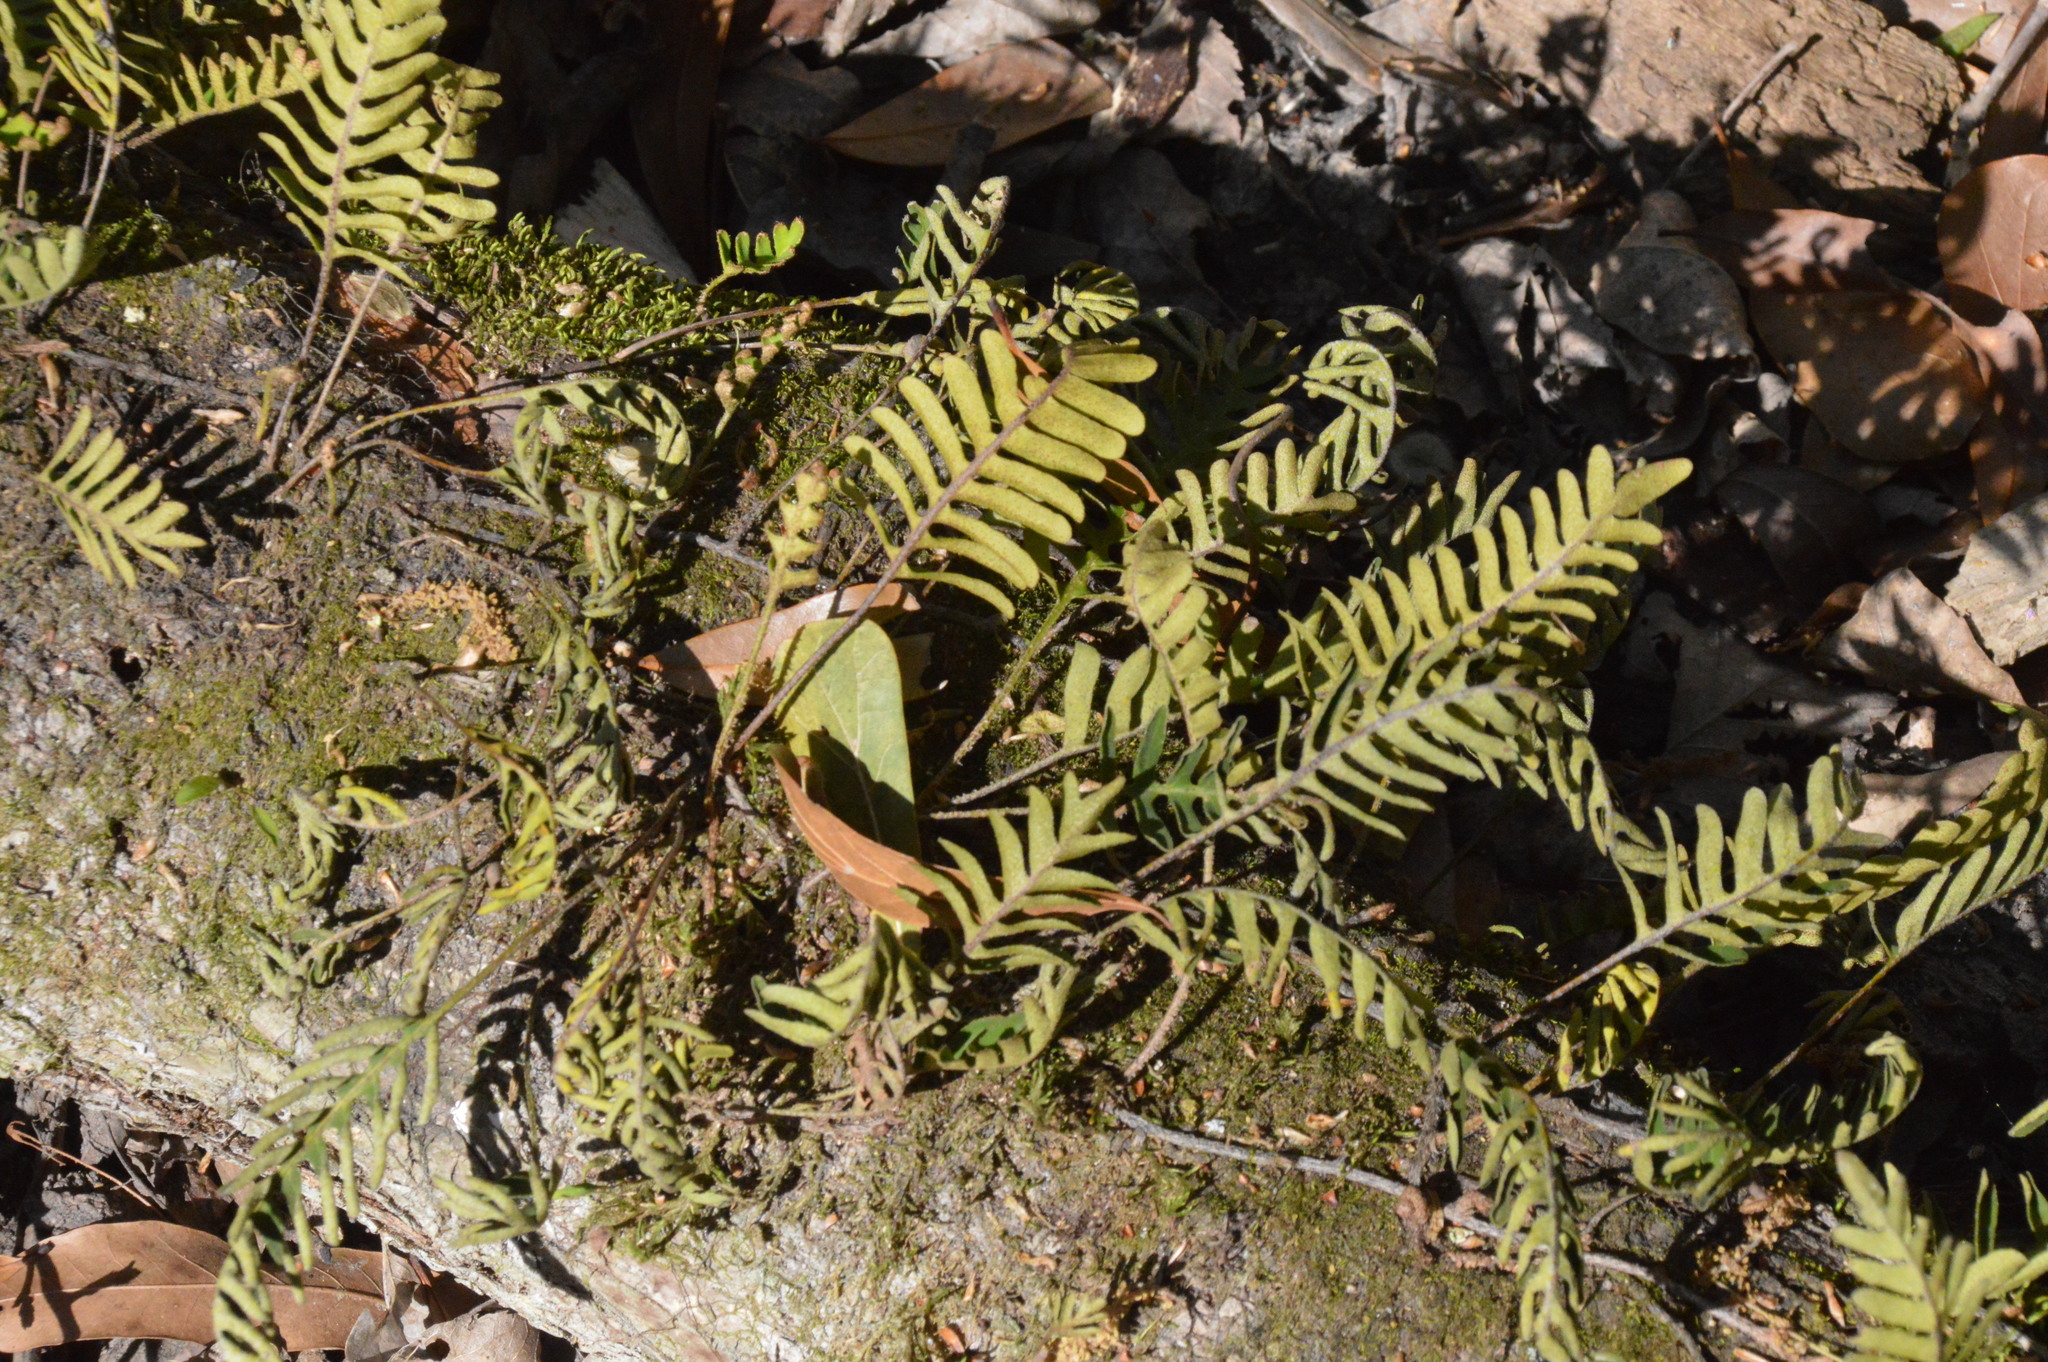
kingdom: Plantae
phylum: Tracheophyta
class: Polypodiopsida
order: Polypodiales
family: Polypodiaceae
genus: Pleopeltis
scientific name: Pleopeltis michauxiana
